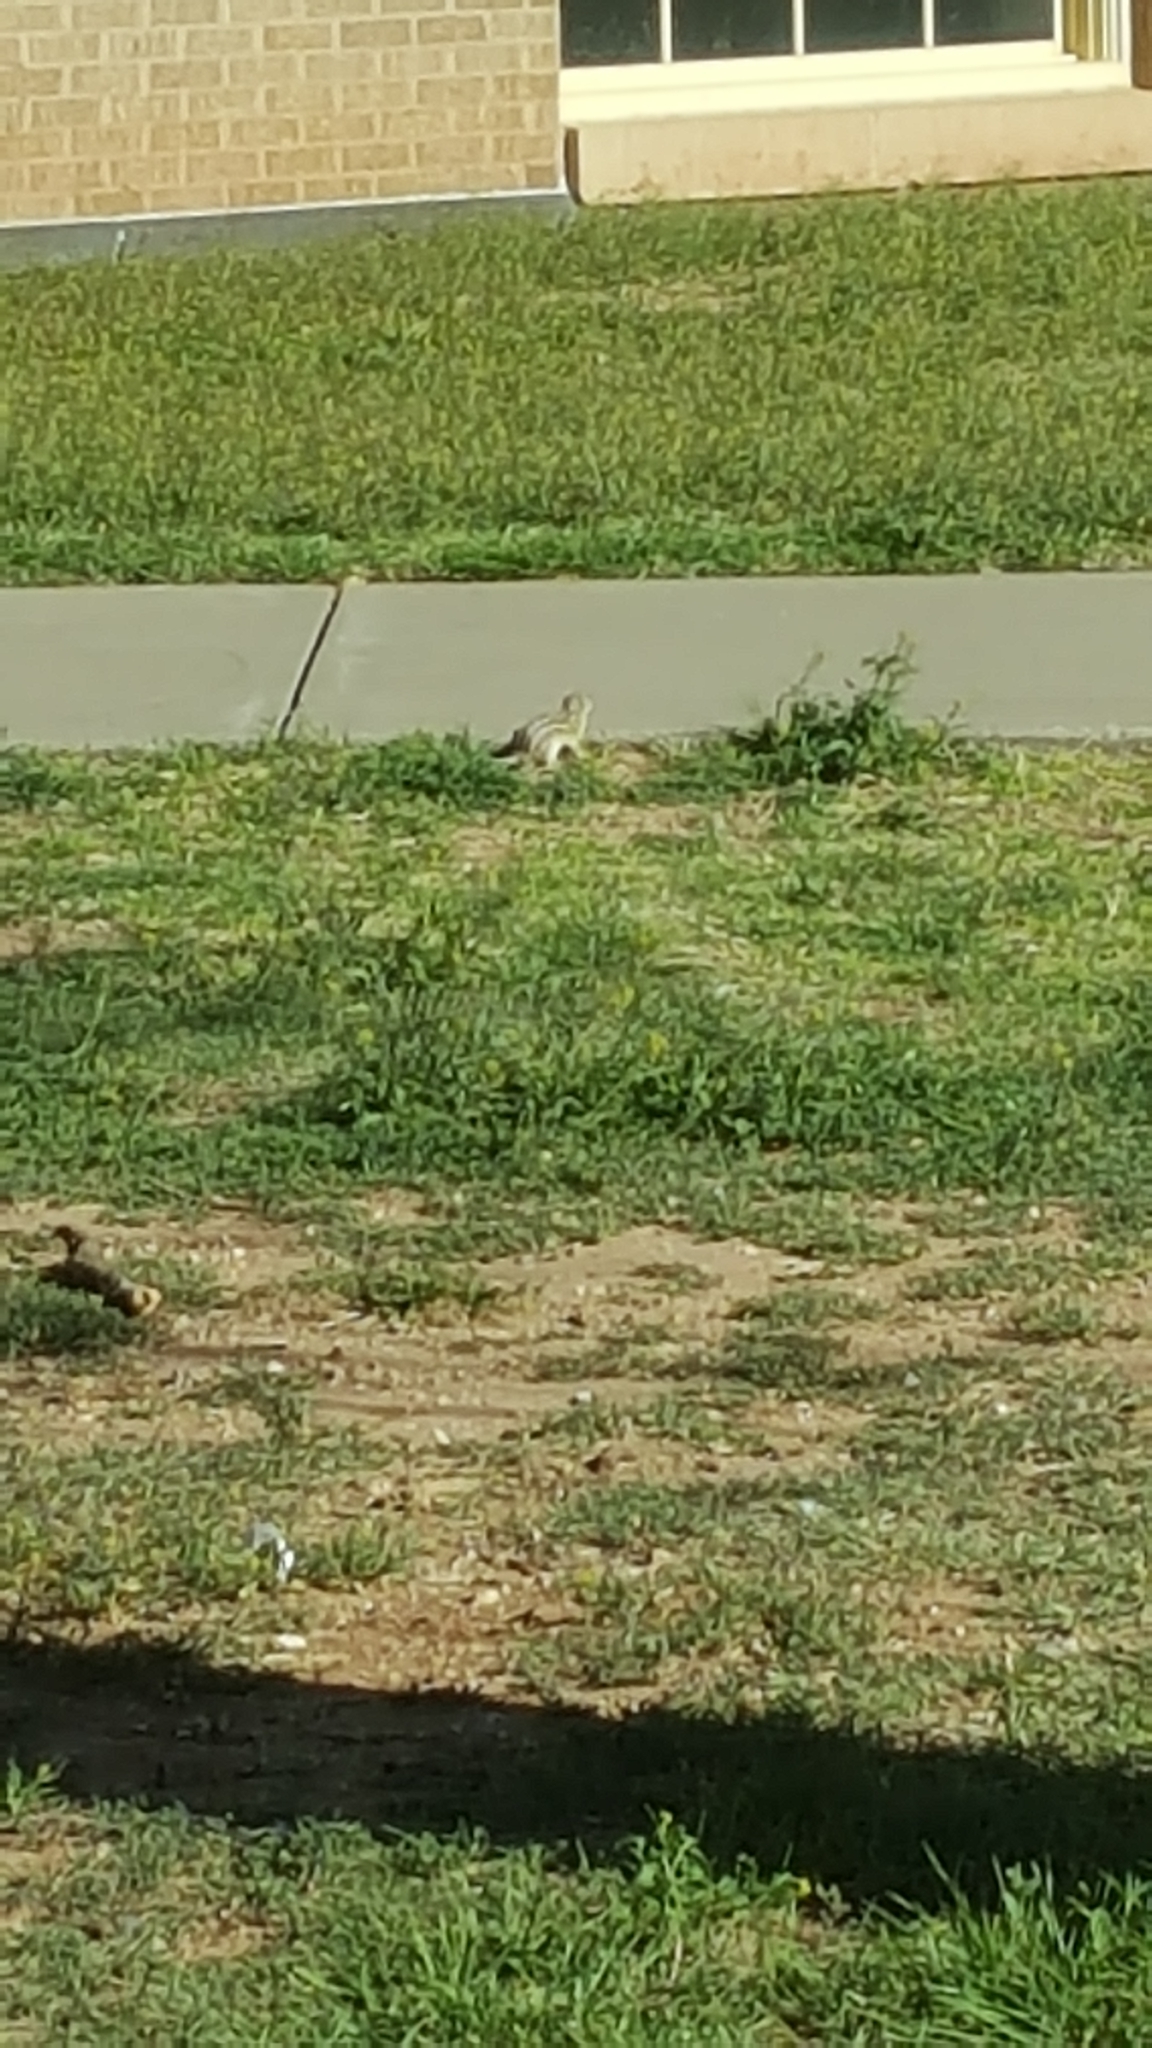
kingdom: Animalia
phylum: Chordata
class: Mammalia
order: Rodentia
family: Sciuridae
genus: Ictidomys
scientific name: Ictidomys tridecemlineatus
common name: Thirteen-lined ground squirrel
